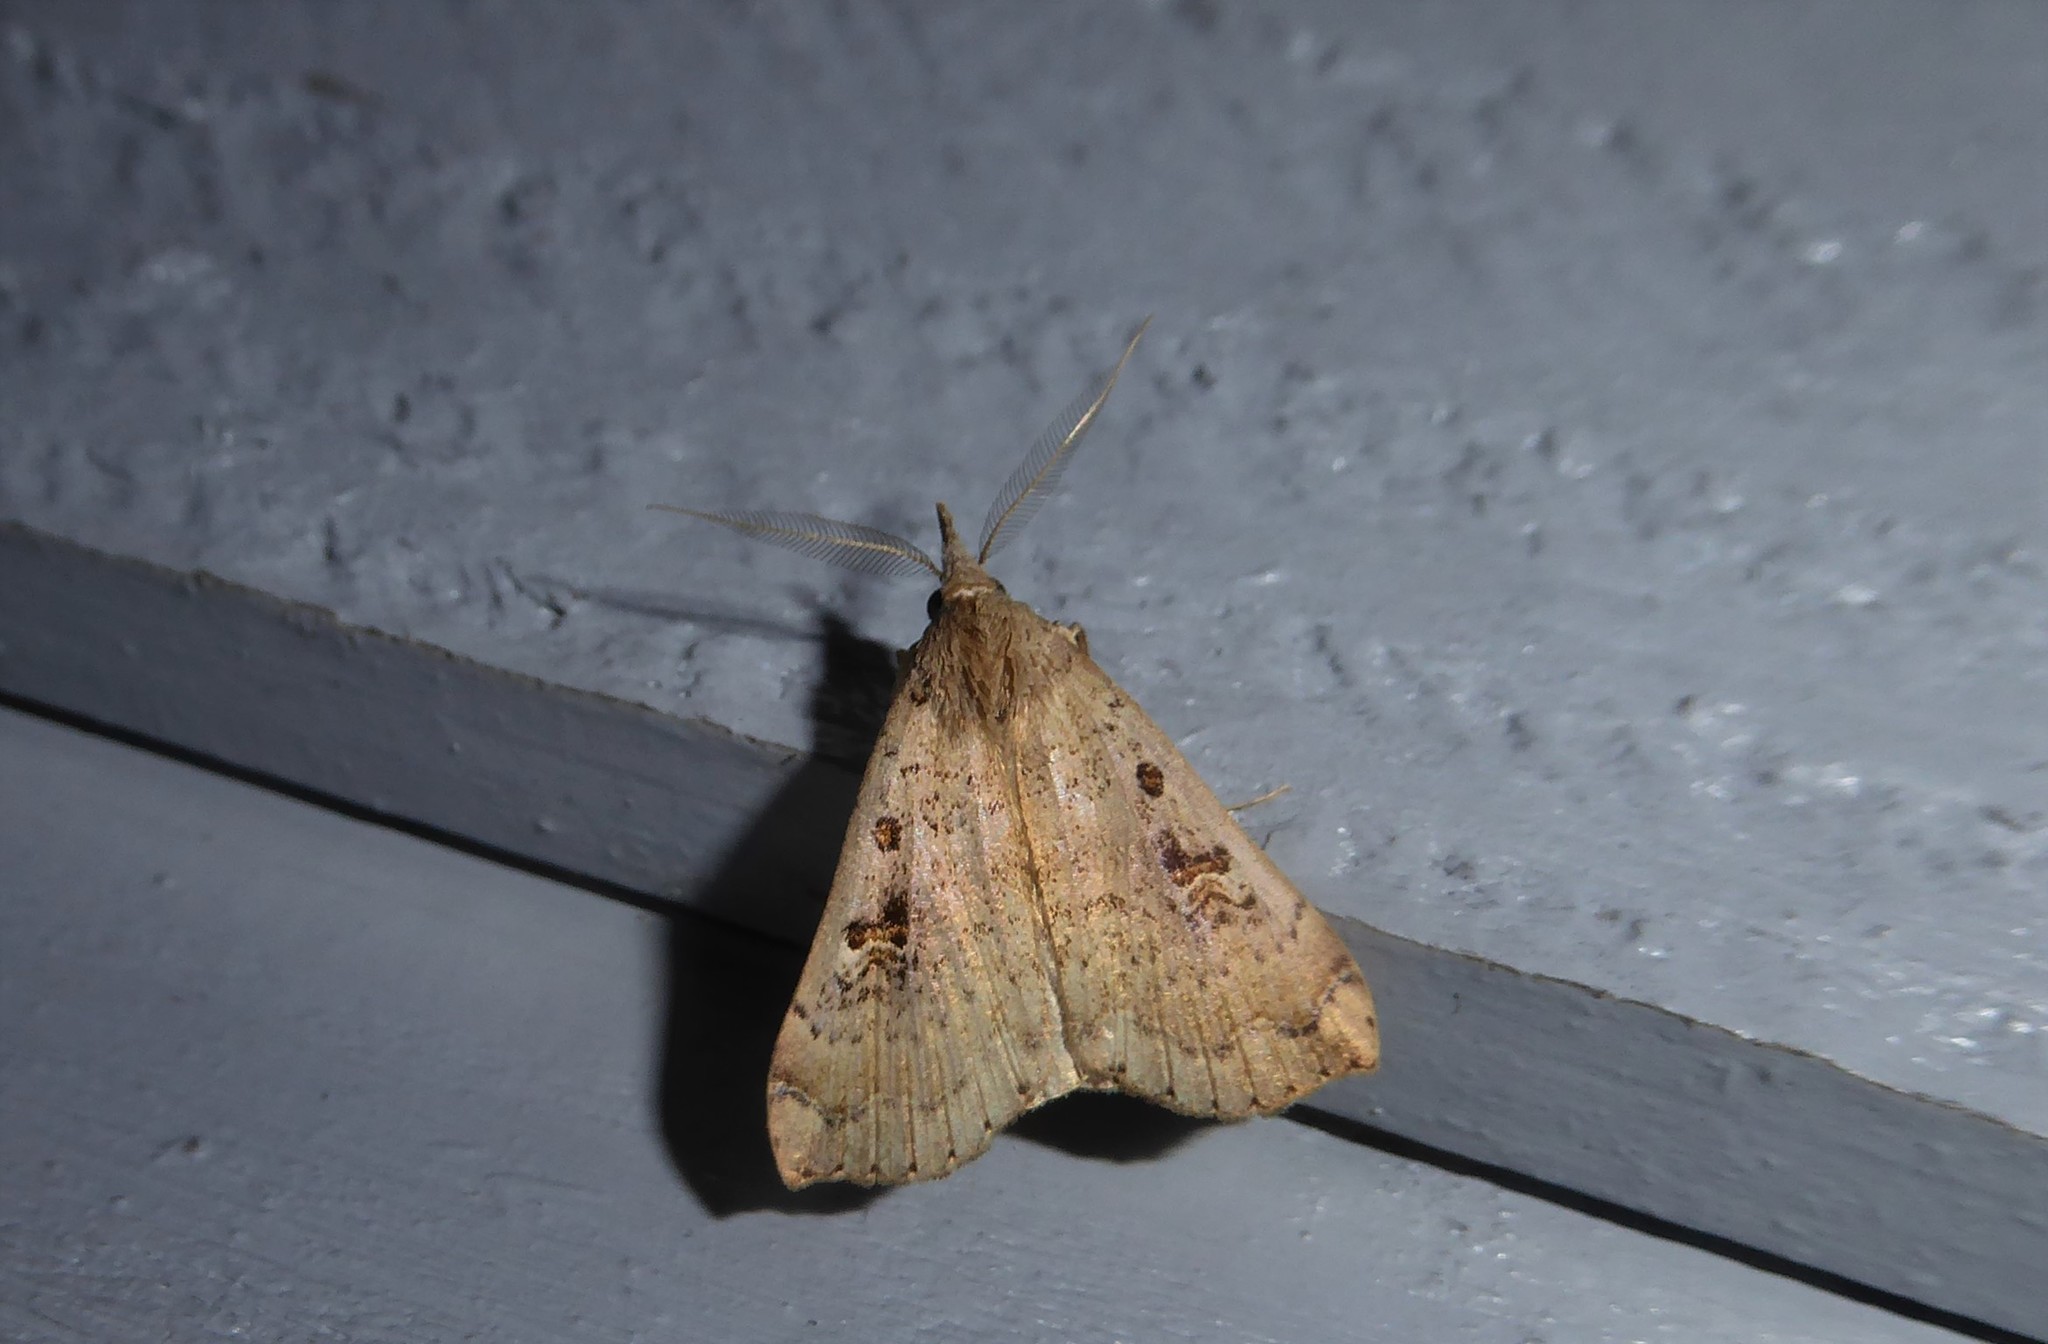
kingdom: Animalia
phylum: Arthropoda
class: Insecta
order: Lepidoptera
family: Erebidae
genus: Rhapsa
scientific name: Rhapsa scotosialis
